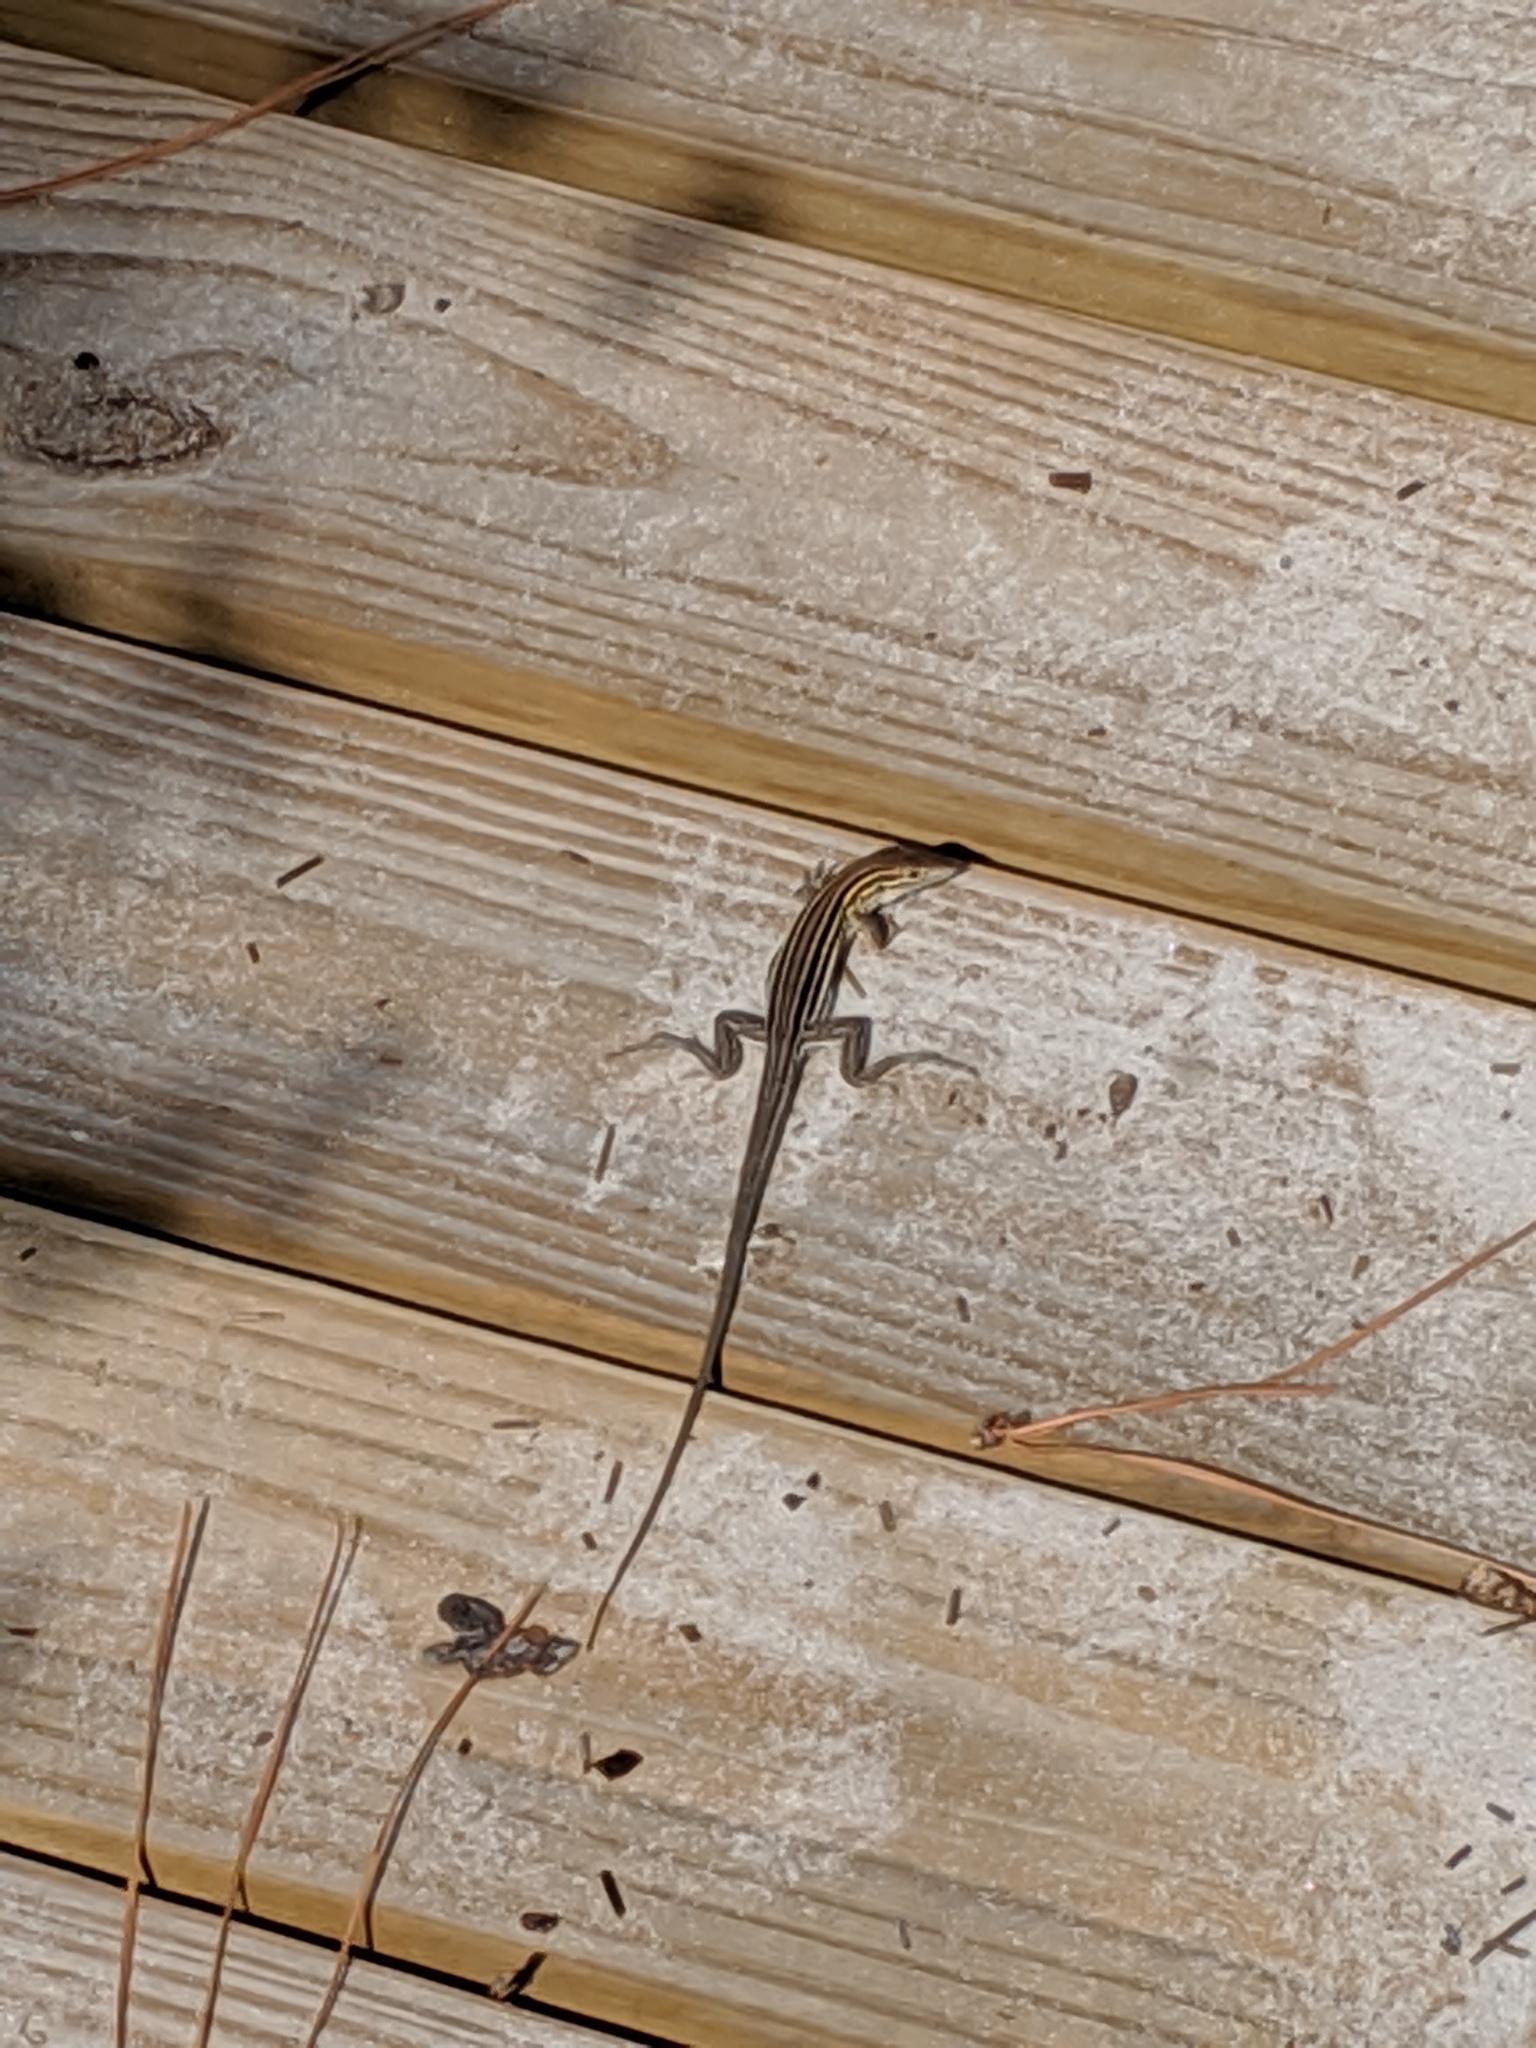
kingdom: Animalia
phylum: Chordata
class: Squamata
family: Teiidae
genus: Aspidoscelis
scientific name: Aspidoscelis sexlineatus
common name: Six-lined racerunner
